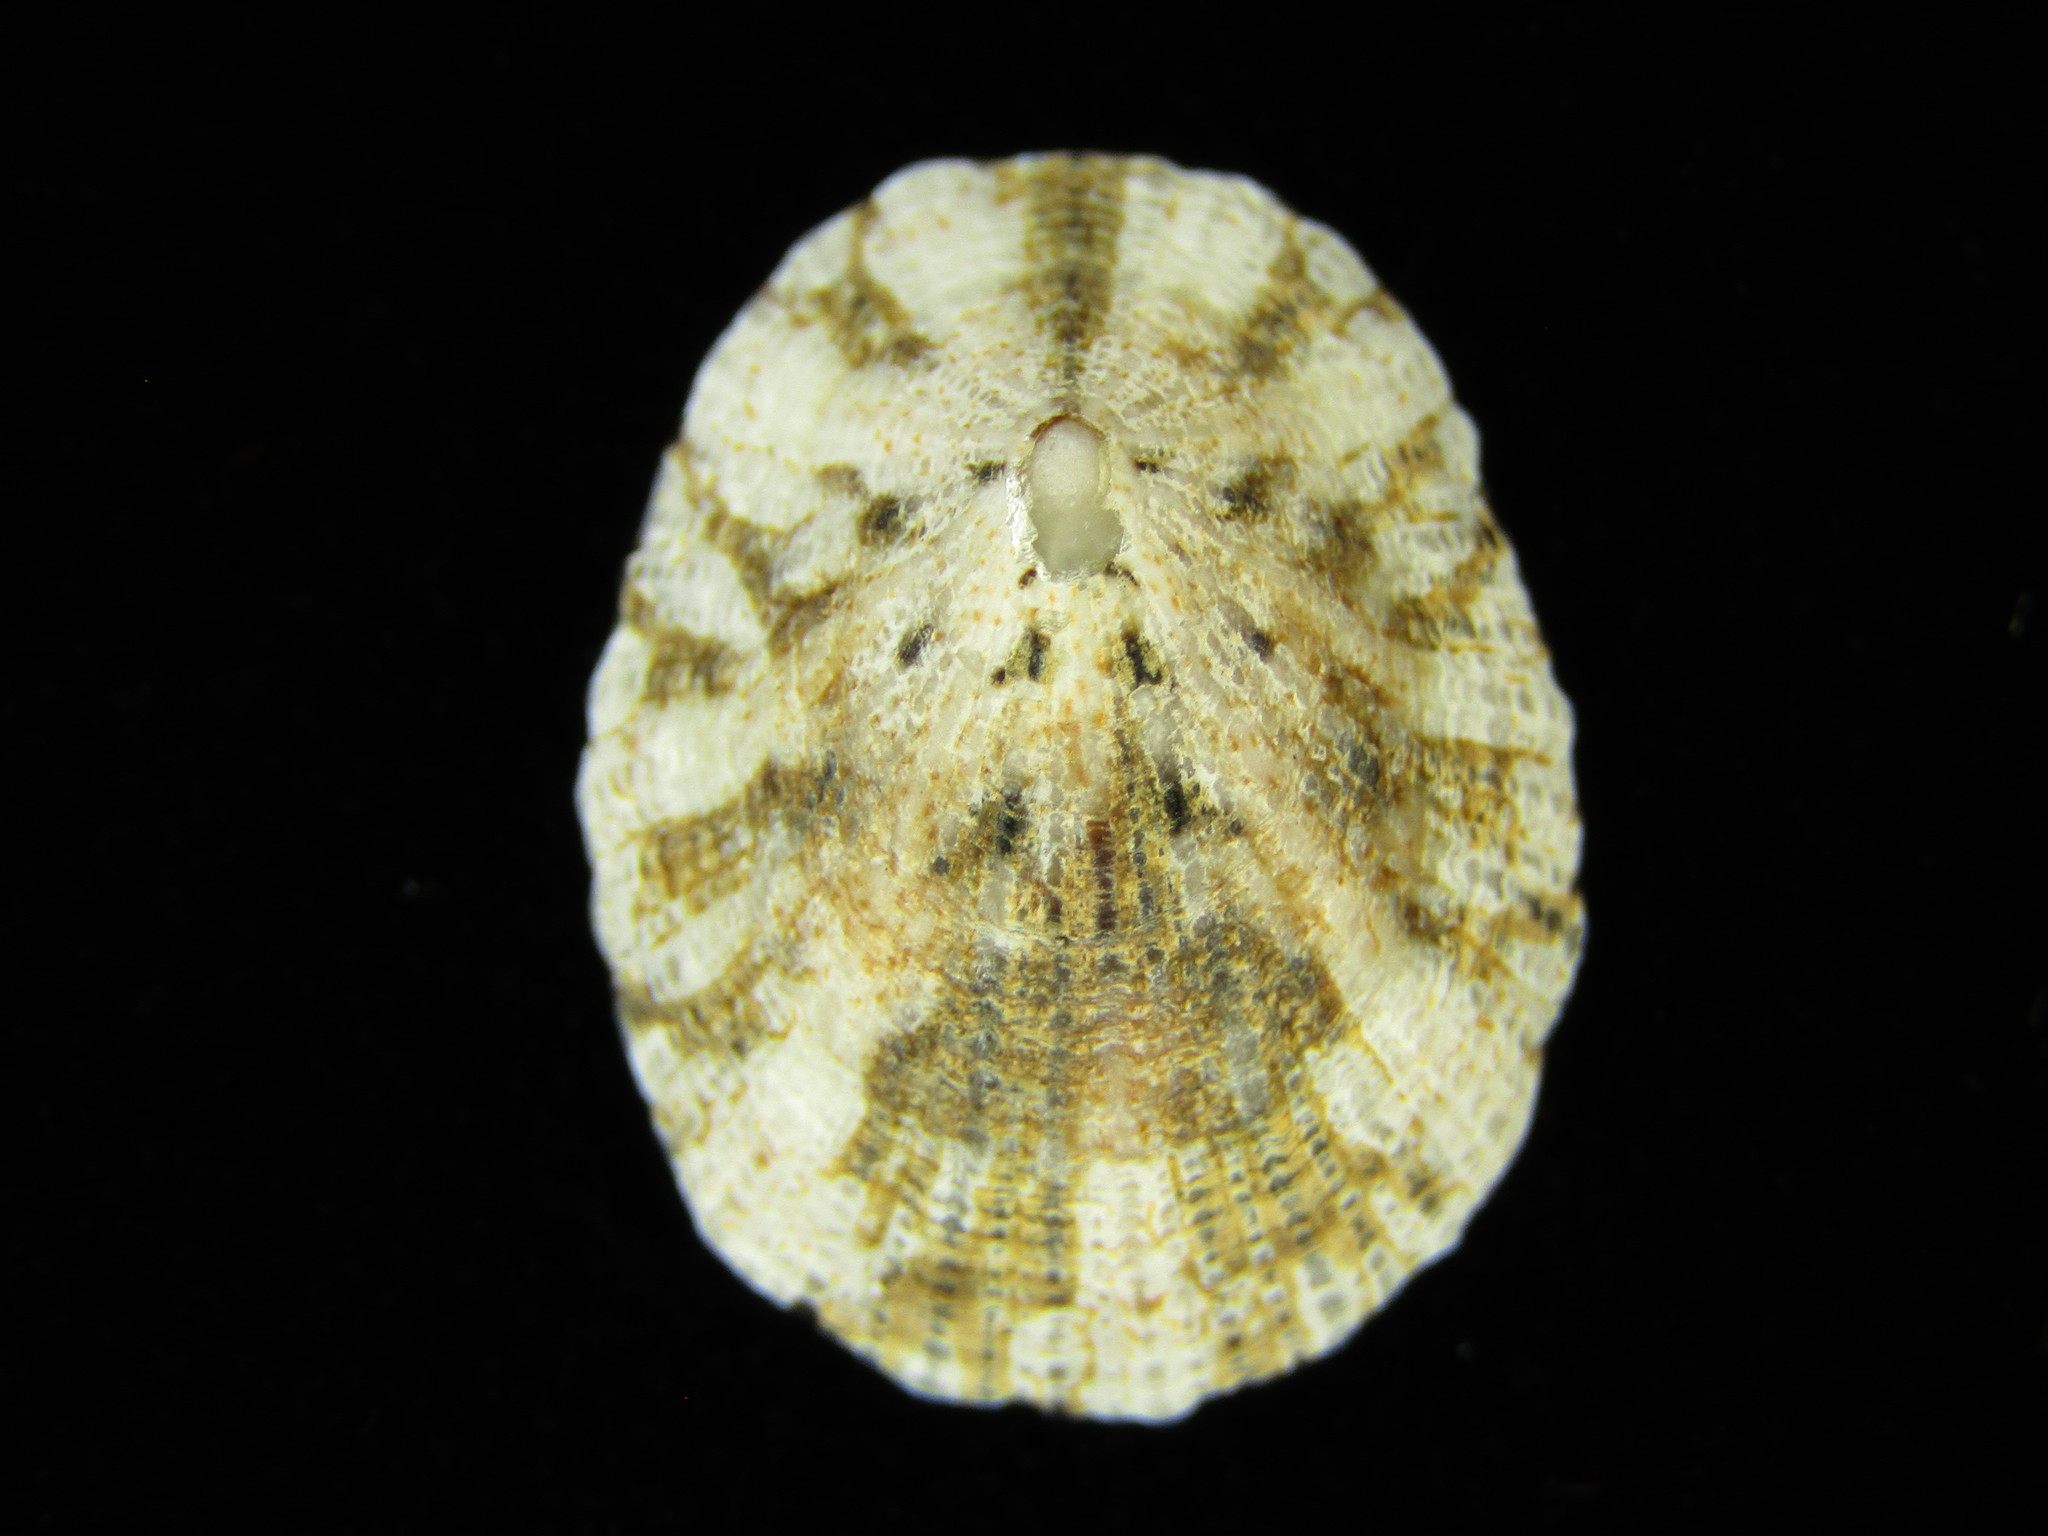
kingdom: Animalia
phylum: Mollusca
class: Gastropoda
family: Nacellidae
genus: Cellana
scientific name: Cellana toreuma
